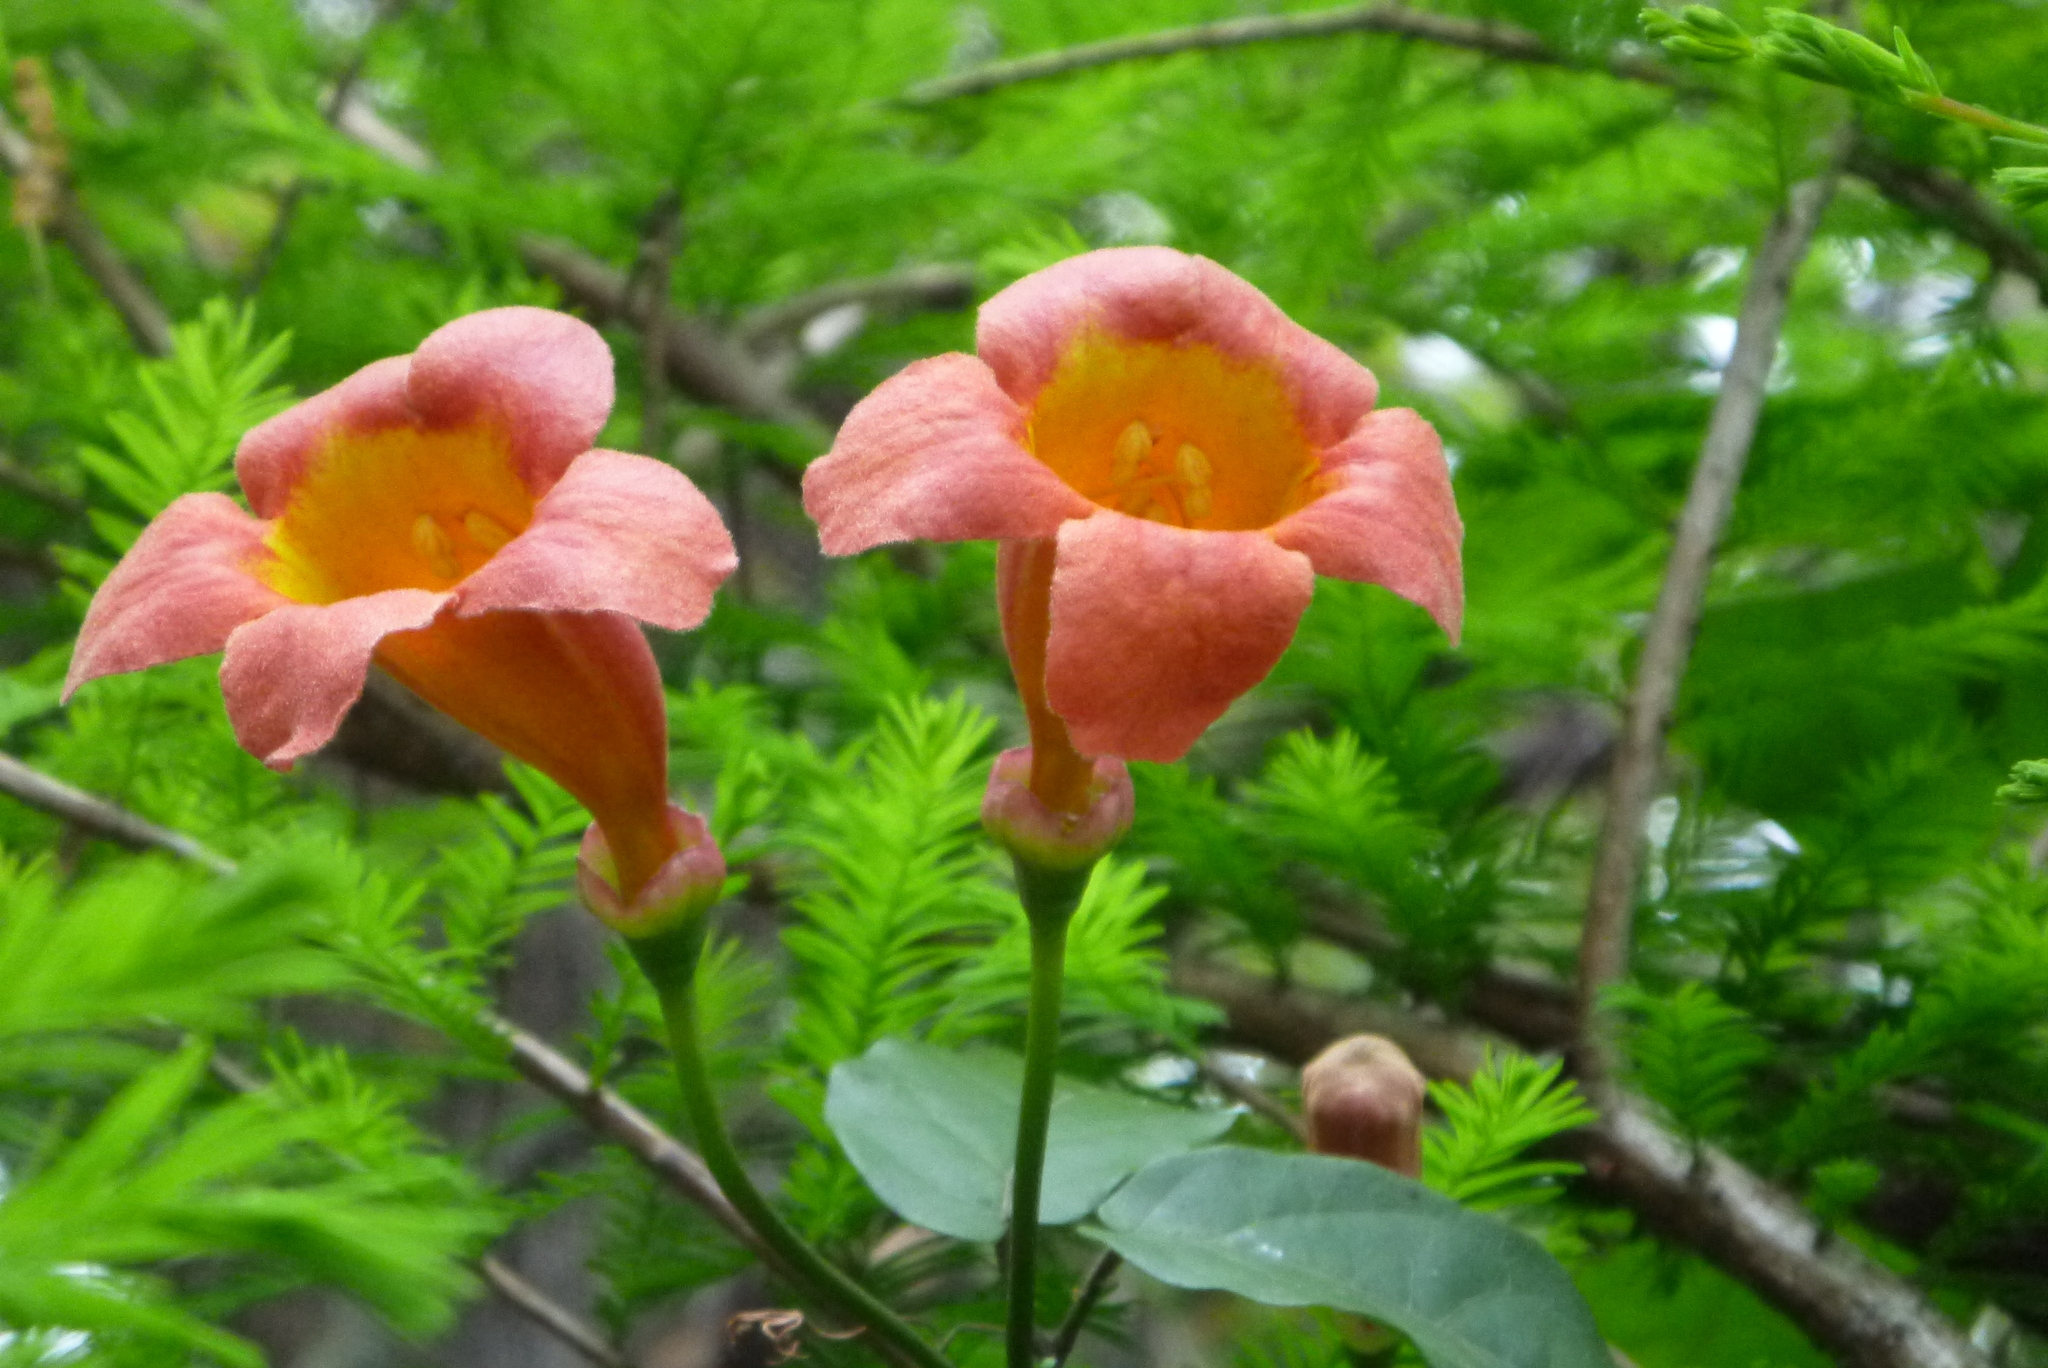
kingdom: Plantae
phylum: Tracheophyta
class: Magnoliopsida
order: Lamiales
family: Bignoniaceae
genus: Bignonia
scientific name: Bignonia capreolata
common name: Crossvine
